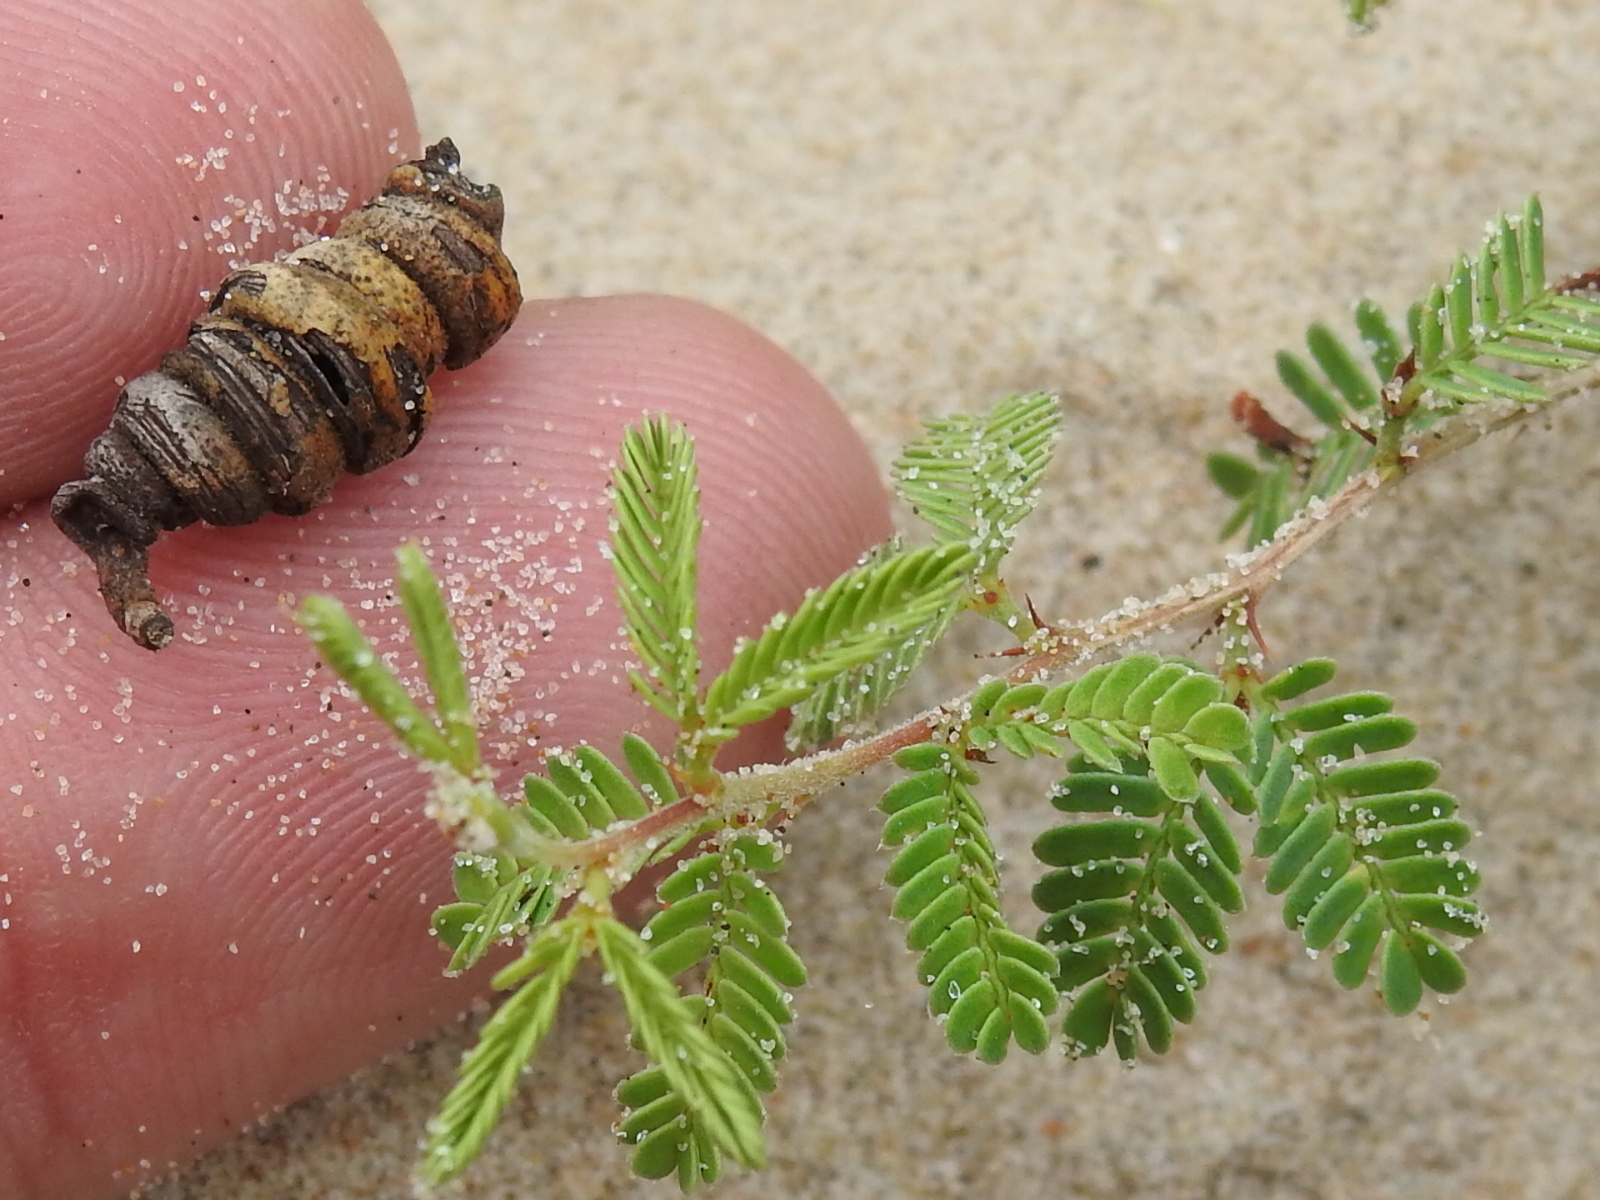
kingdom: Plantae
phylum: Tracheophyta
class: Magnoliopsida
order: Fabales
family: Fabaceae
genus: Prosopis
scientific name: Prosopis cinerascens
